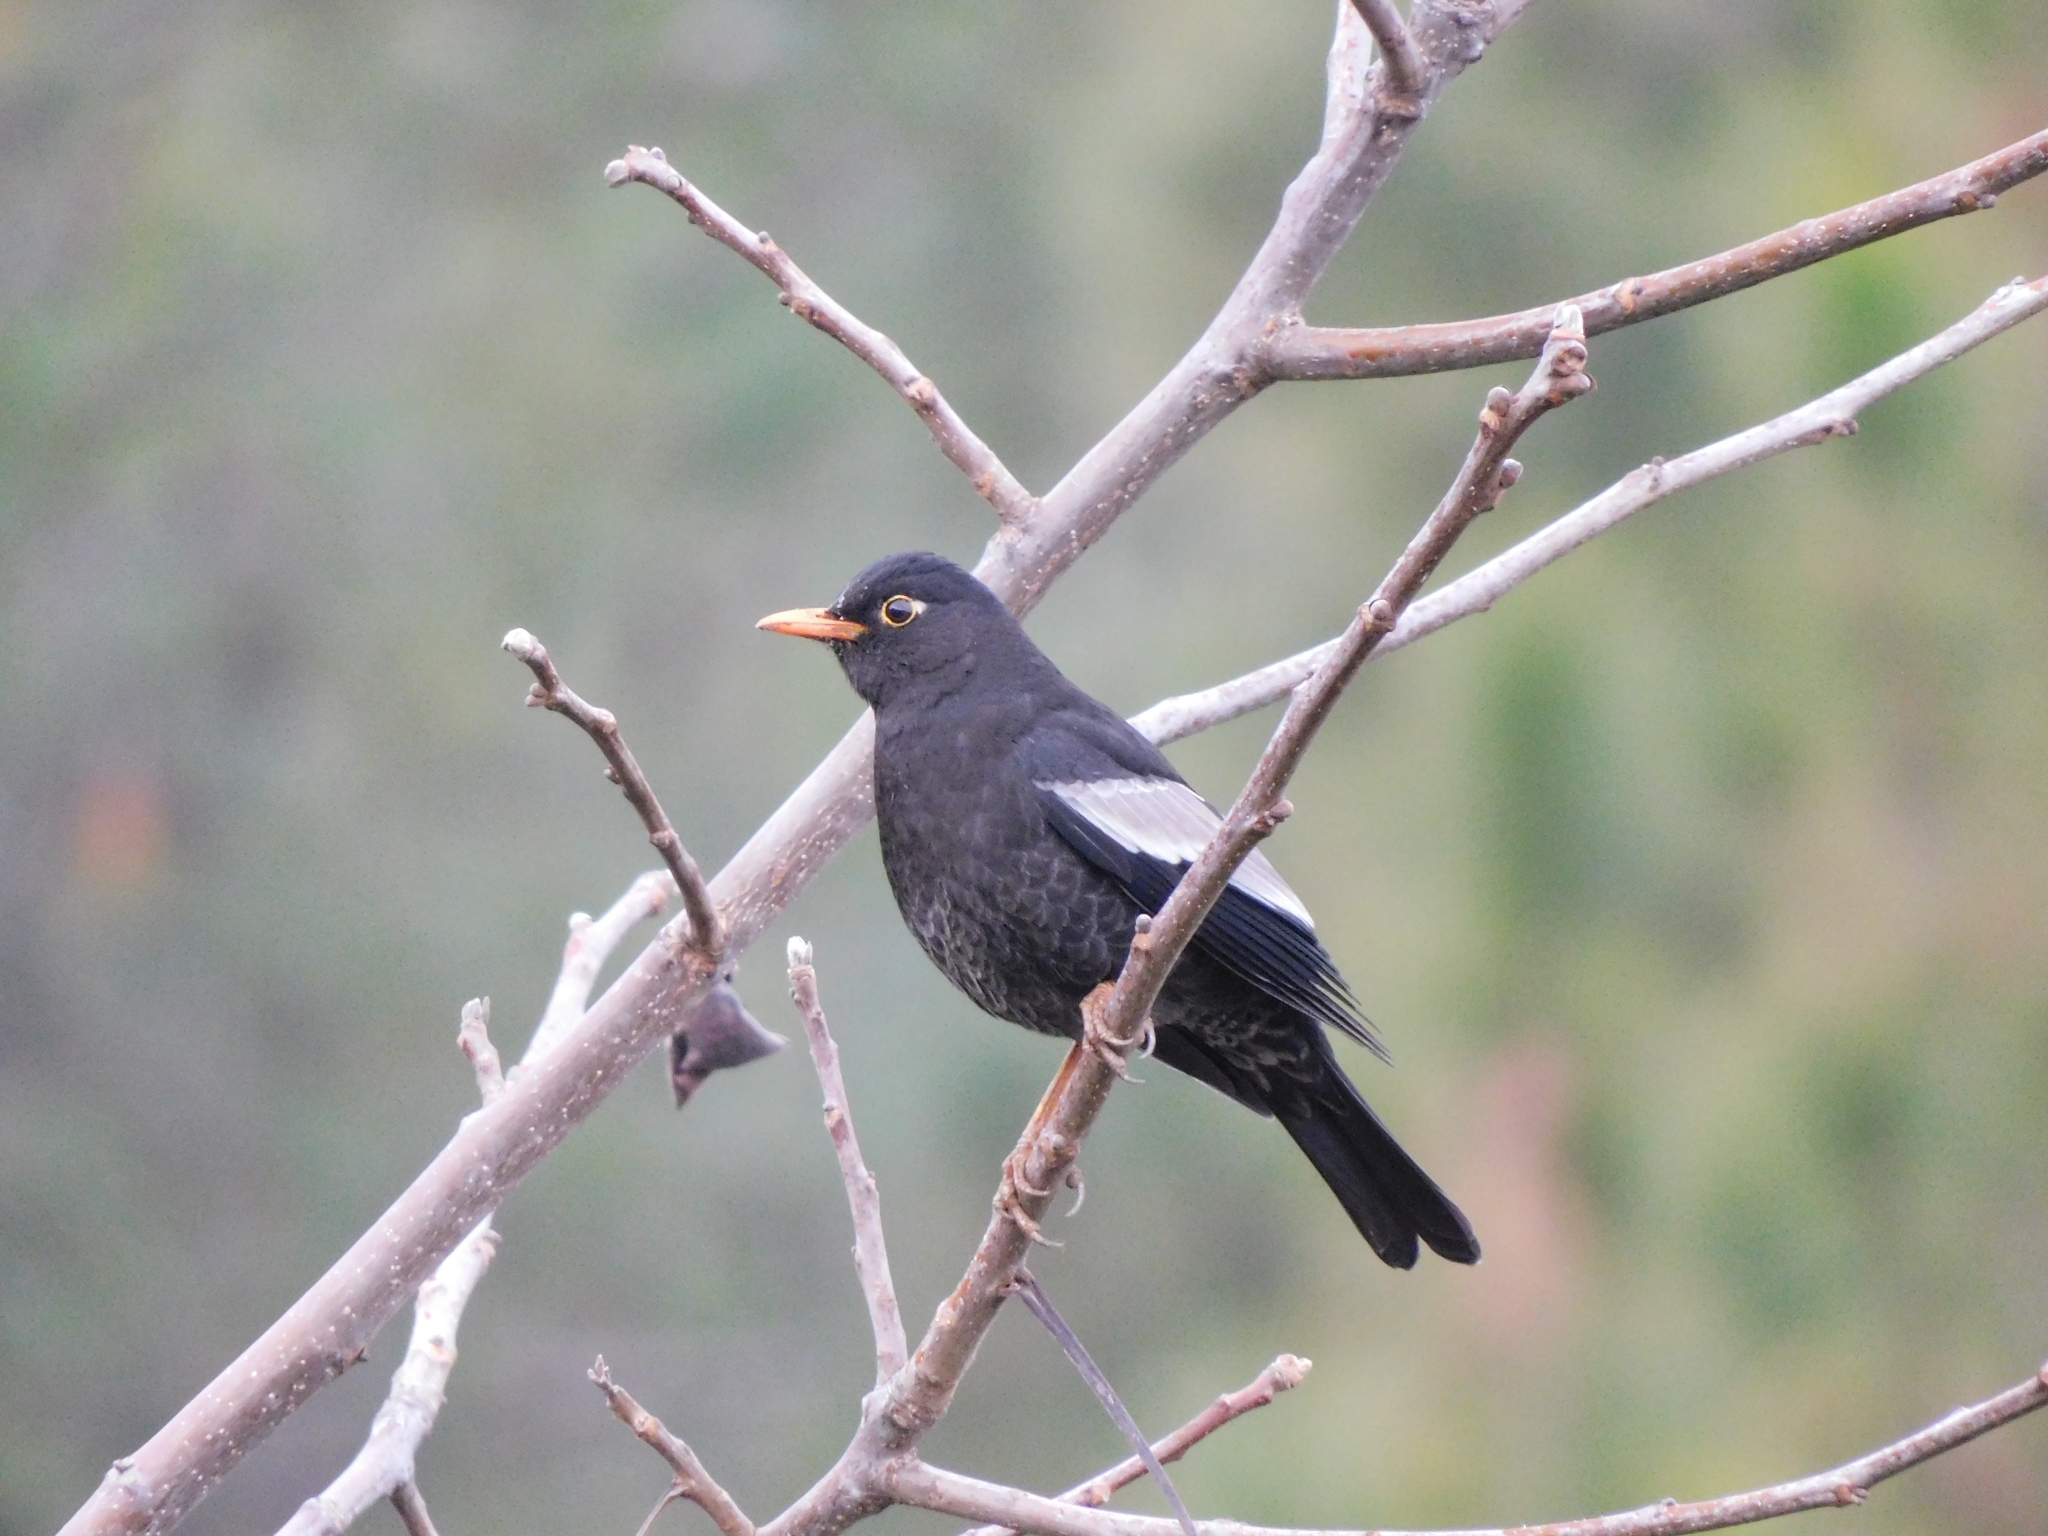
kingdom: Animalia
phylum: Chordata
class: Aves
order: Passeriformes
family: Turdidae
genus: Turdus
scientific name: Turdus boulboul
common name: Grey-winged blackbird
